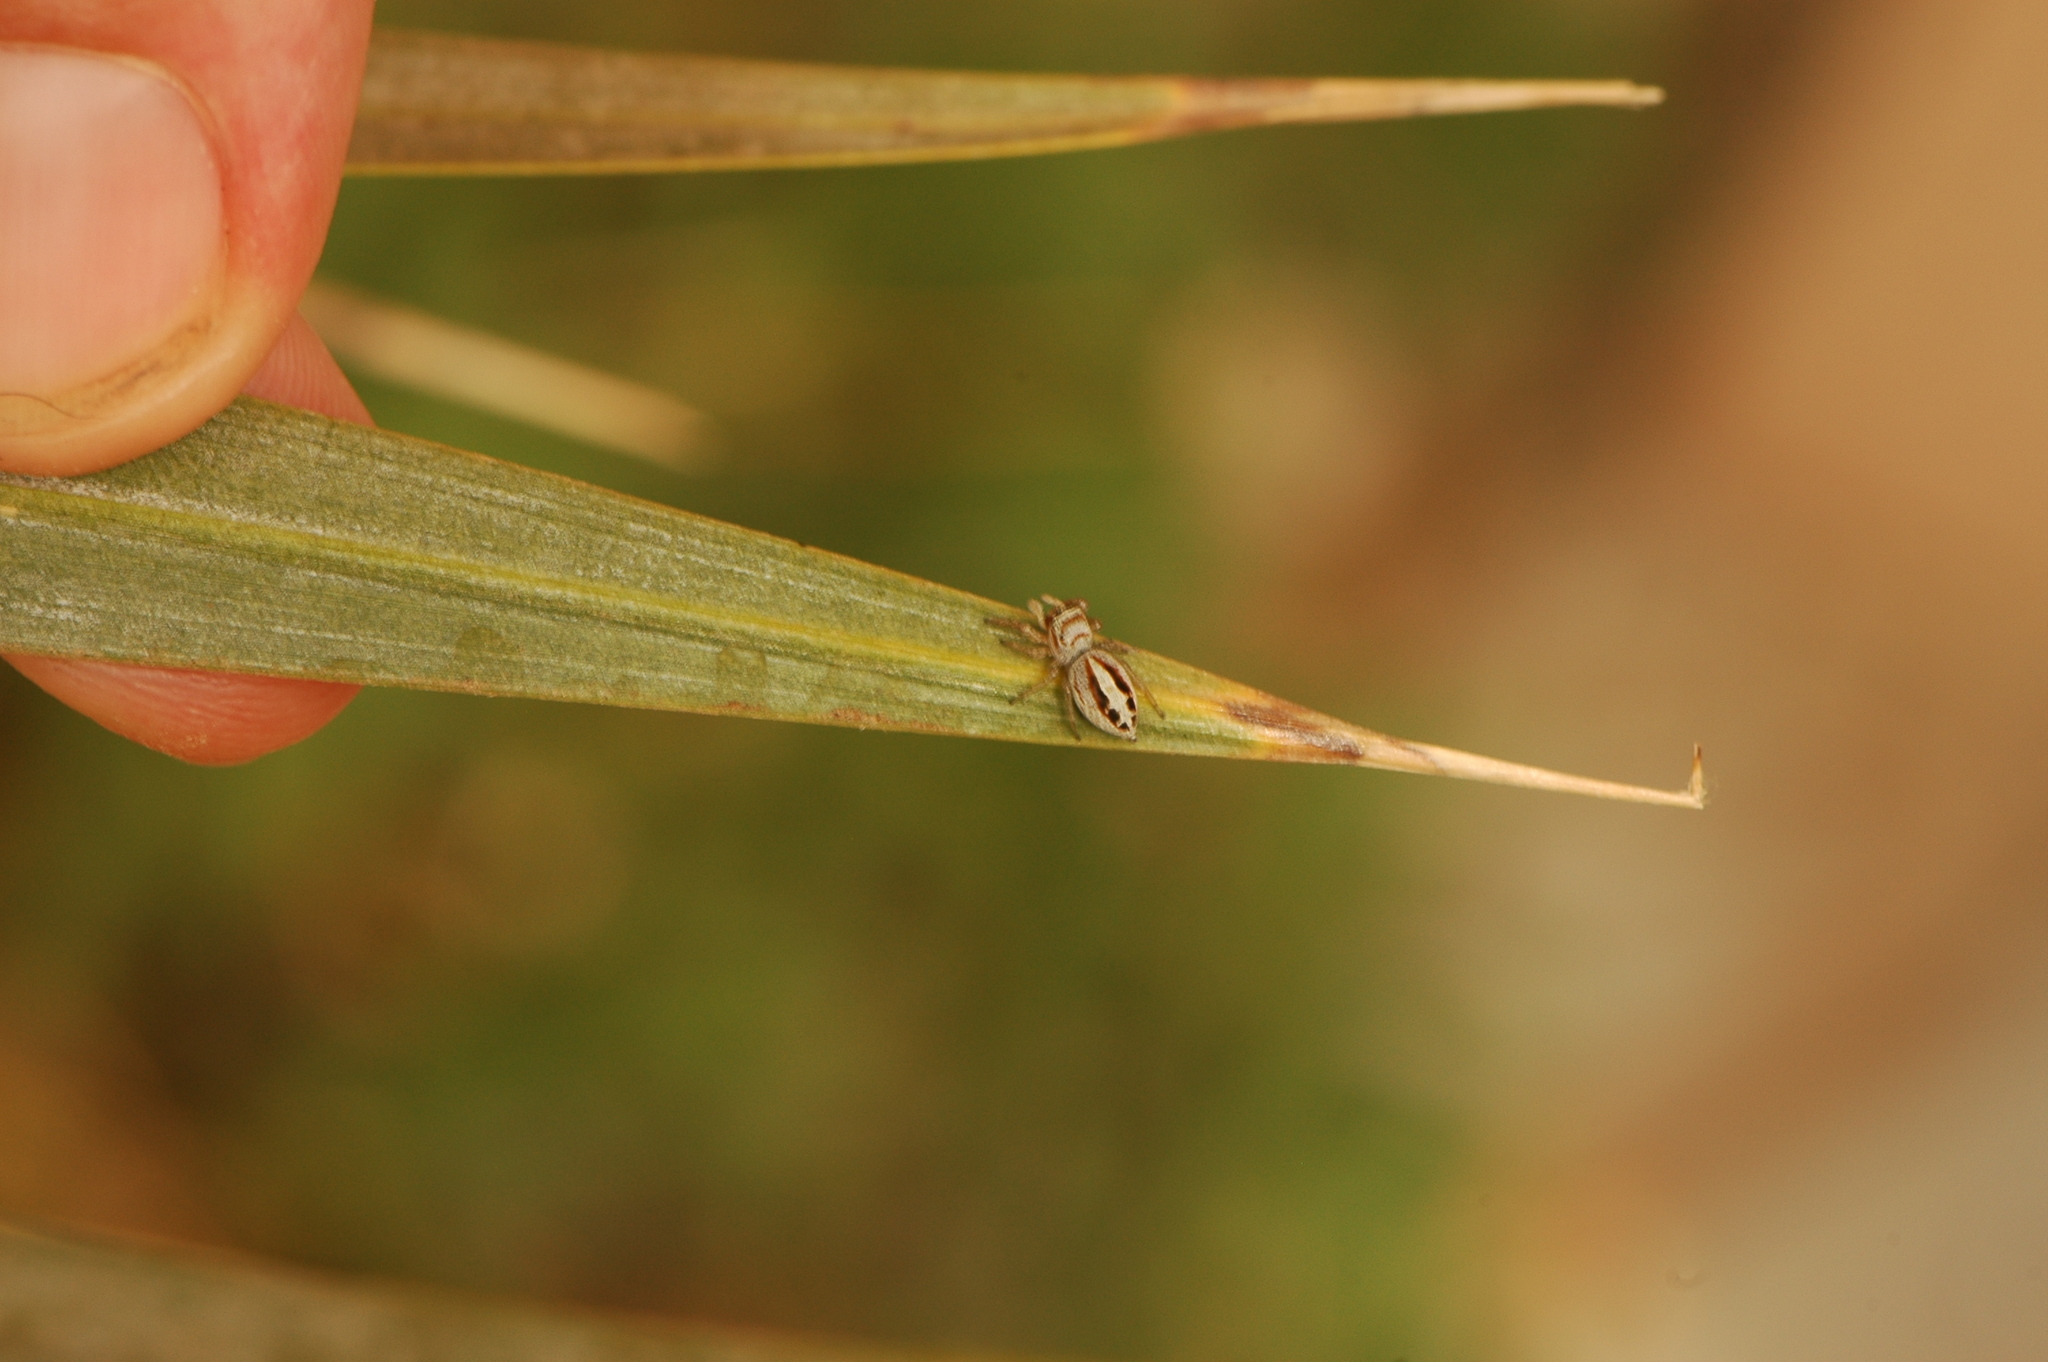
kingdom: Animalia
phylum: Arthropoda
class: Arachnida
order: Araneae
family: Salticidae
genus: Icius
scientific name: Icius hamatus
